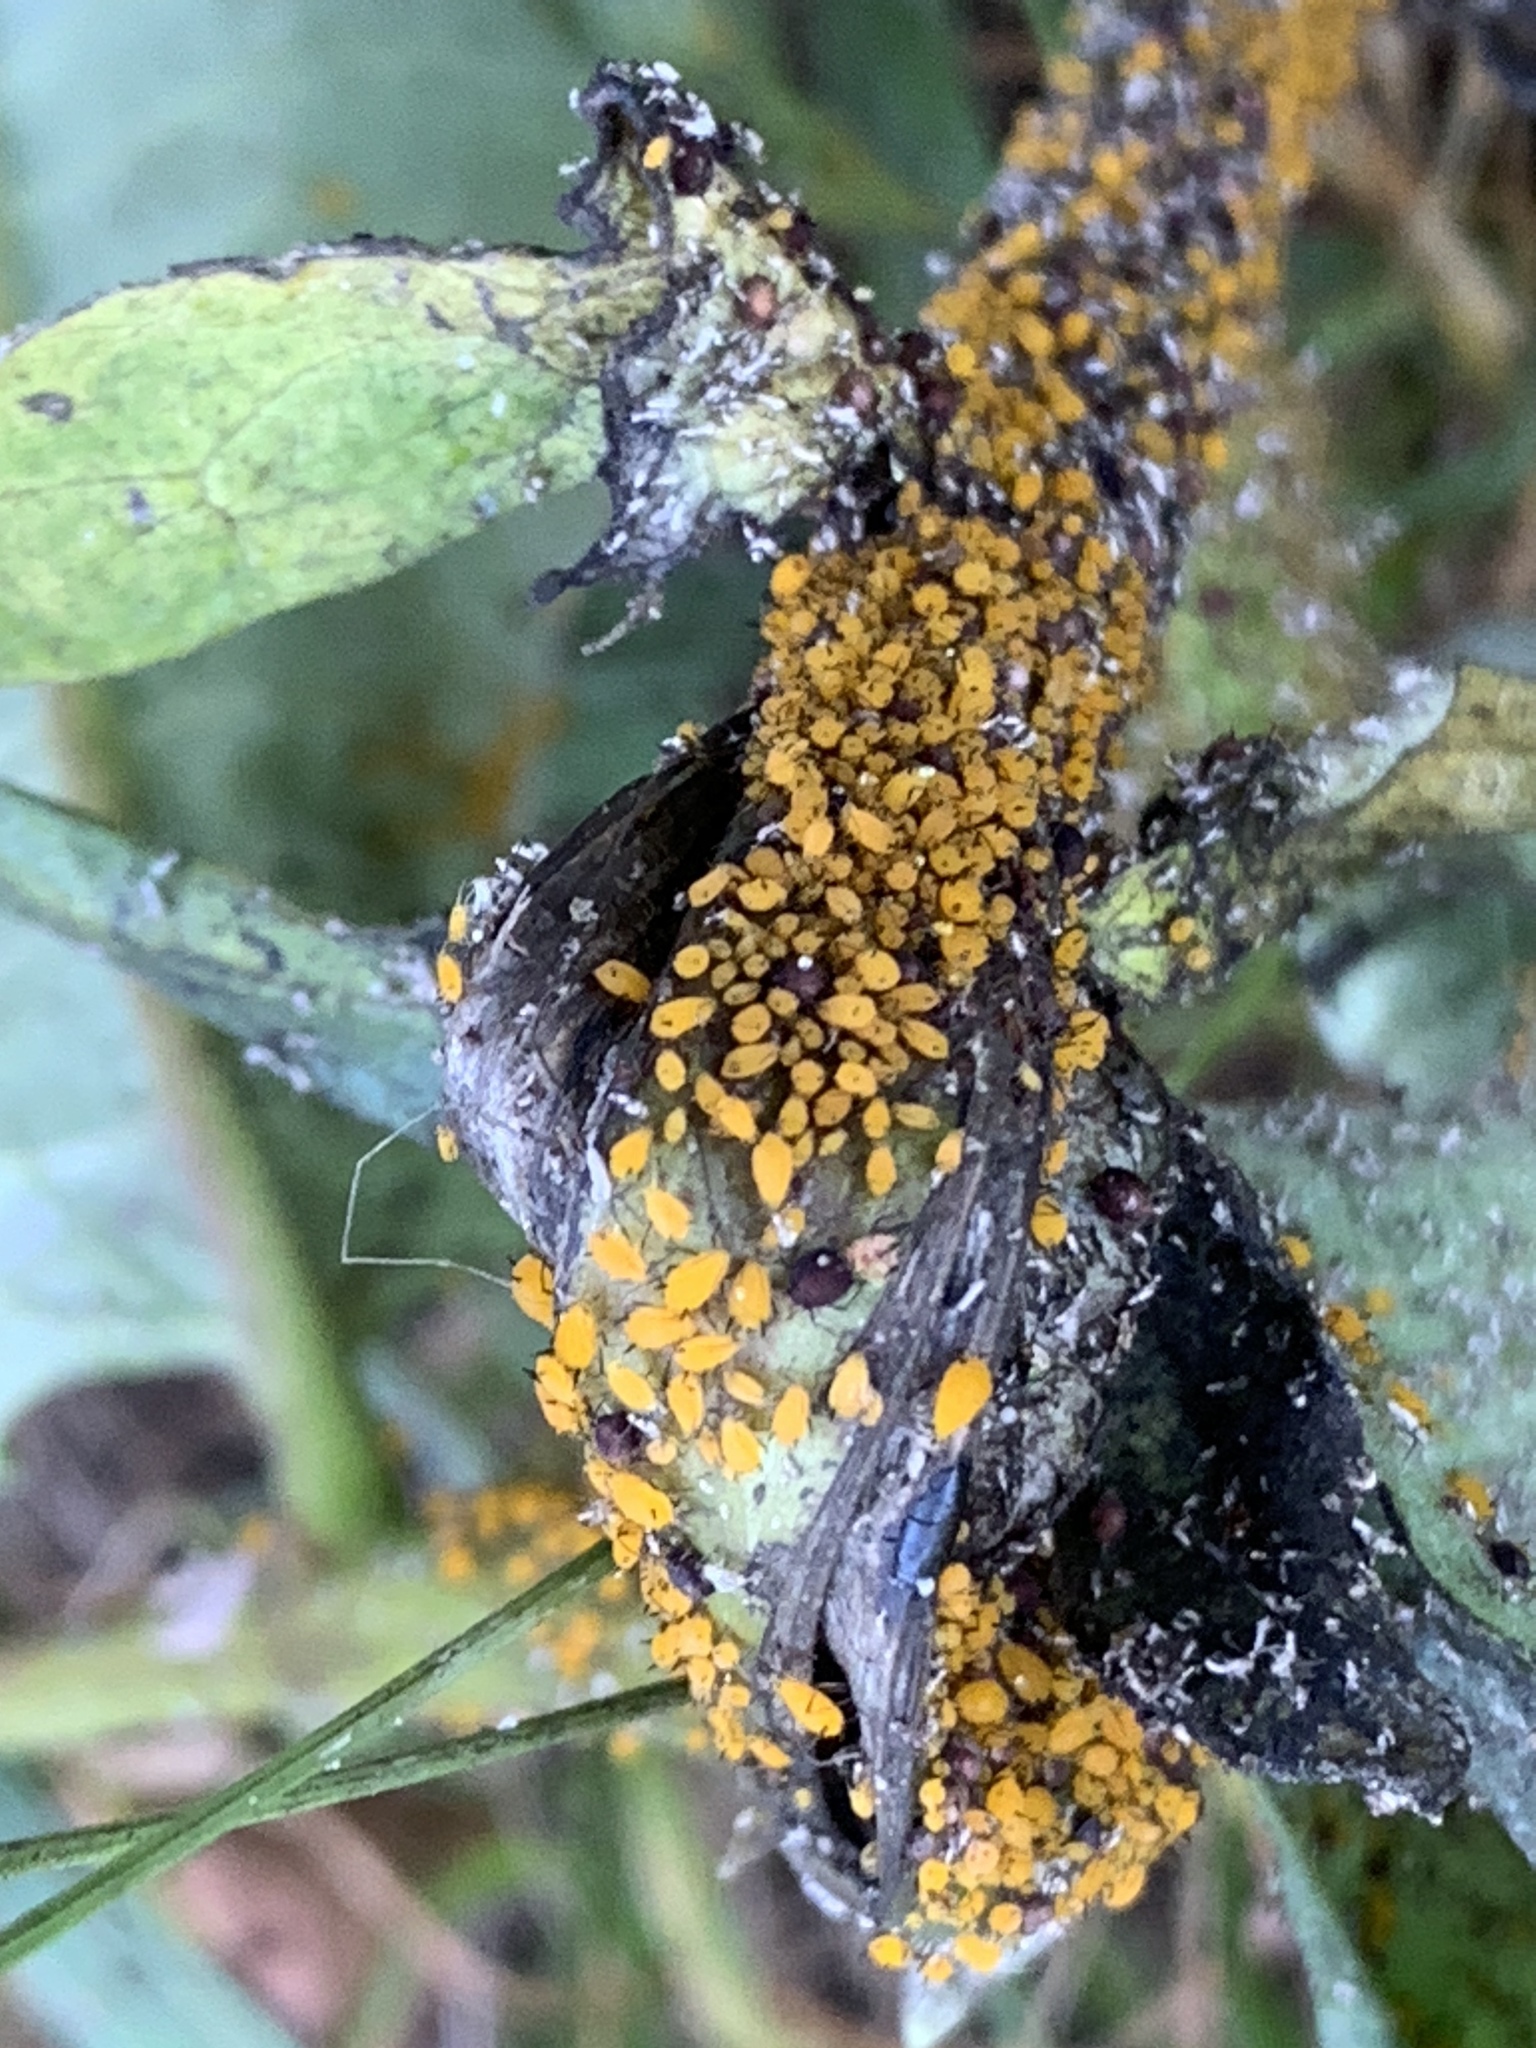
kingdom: Animalia
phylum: Arthropoda
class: Insecta
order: Hemiptera
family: Aphididae
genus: Aphis
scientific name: Aphis nerii
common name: Oleander aphid
